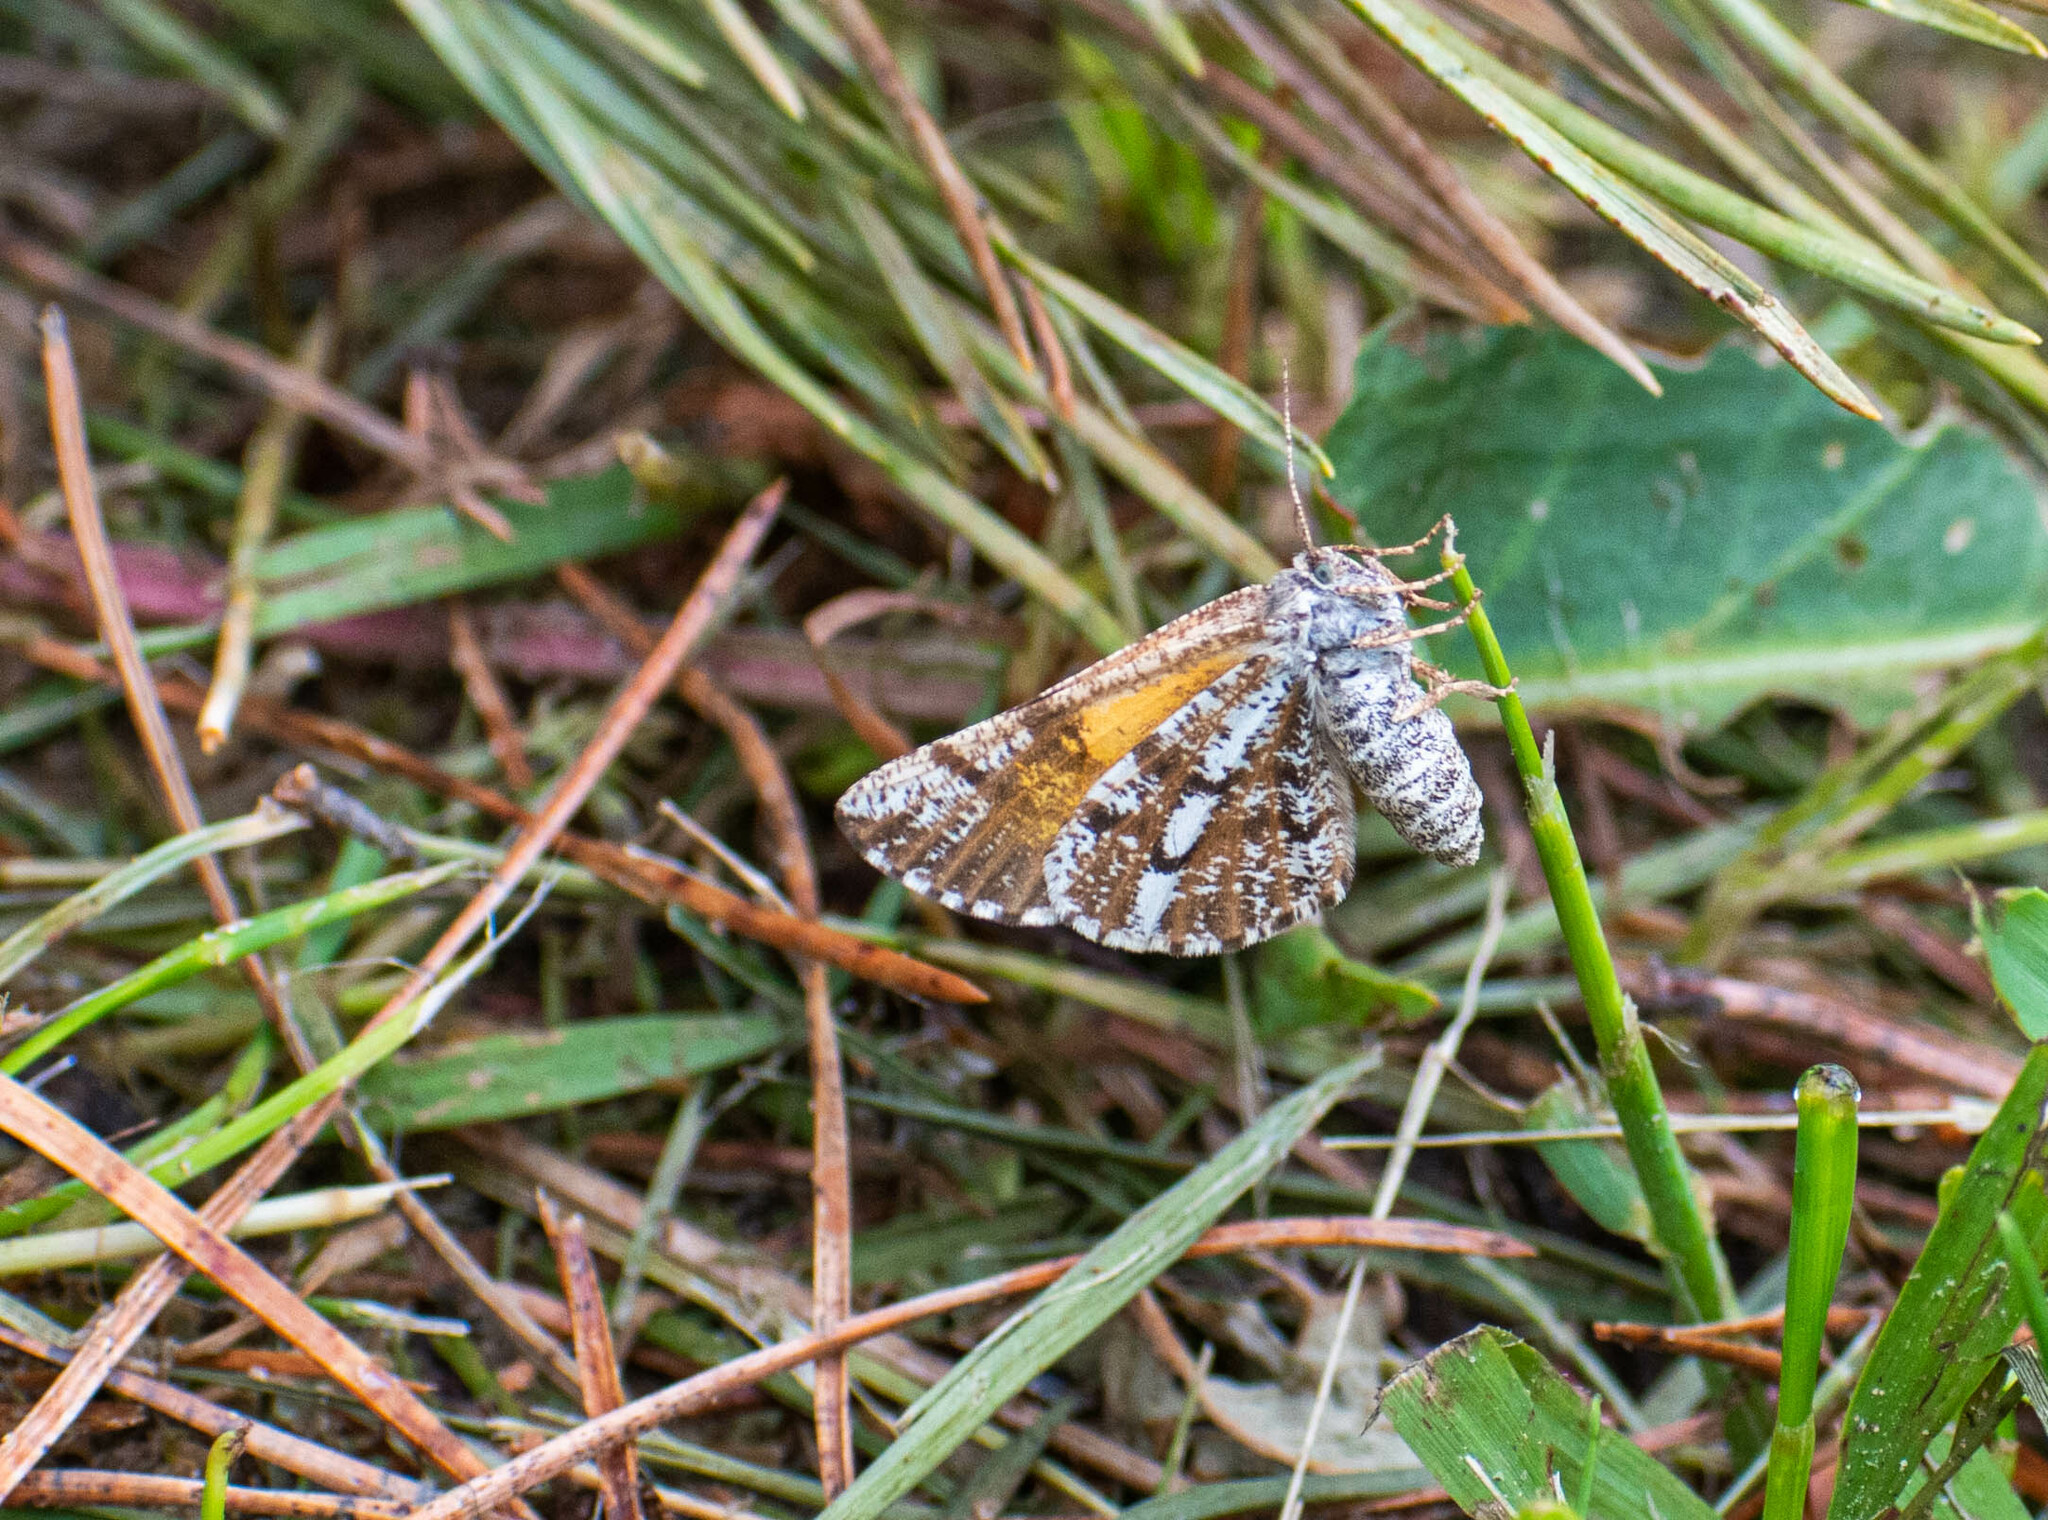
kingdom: Animalia
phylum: Arthropoda
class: Insecta
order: Lepidoptera
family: Geometridae
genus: Bupalus
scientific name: Bupalus piniaria
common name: Bordered white
